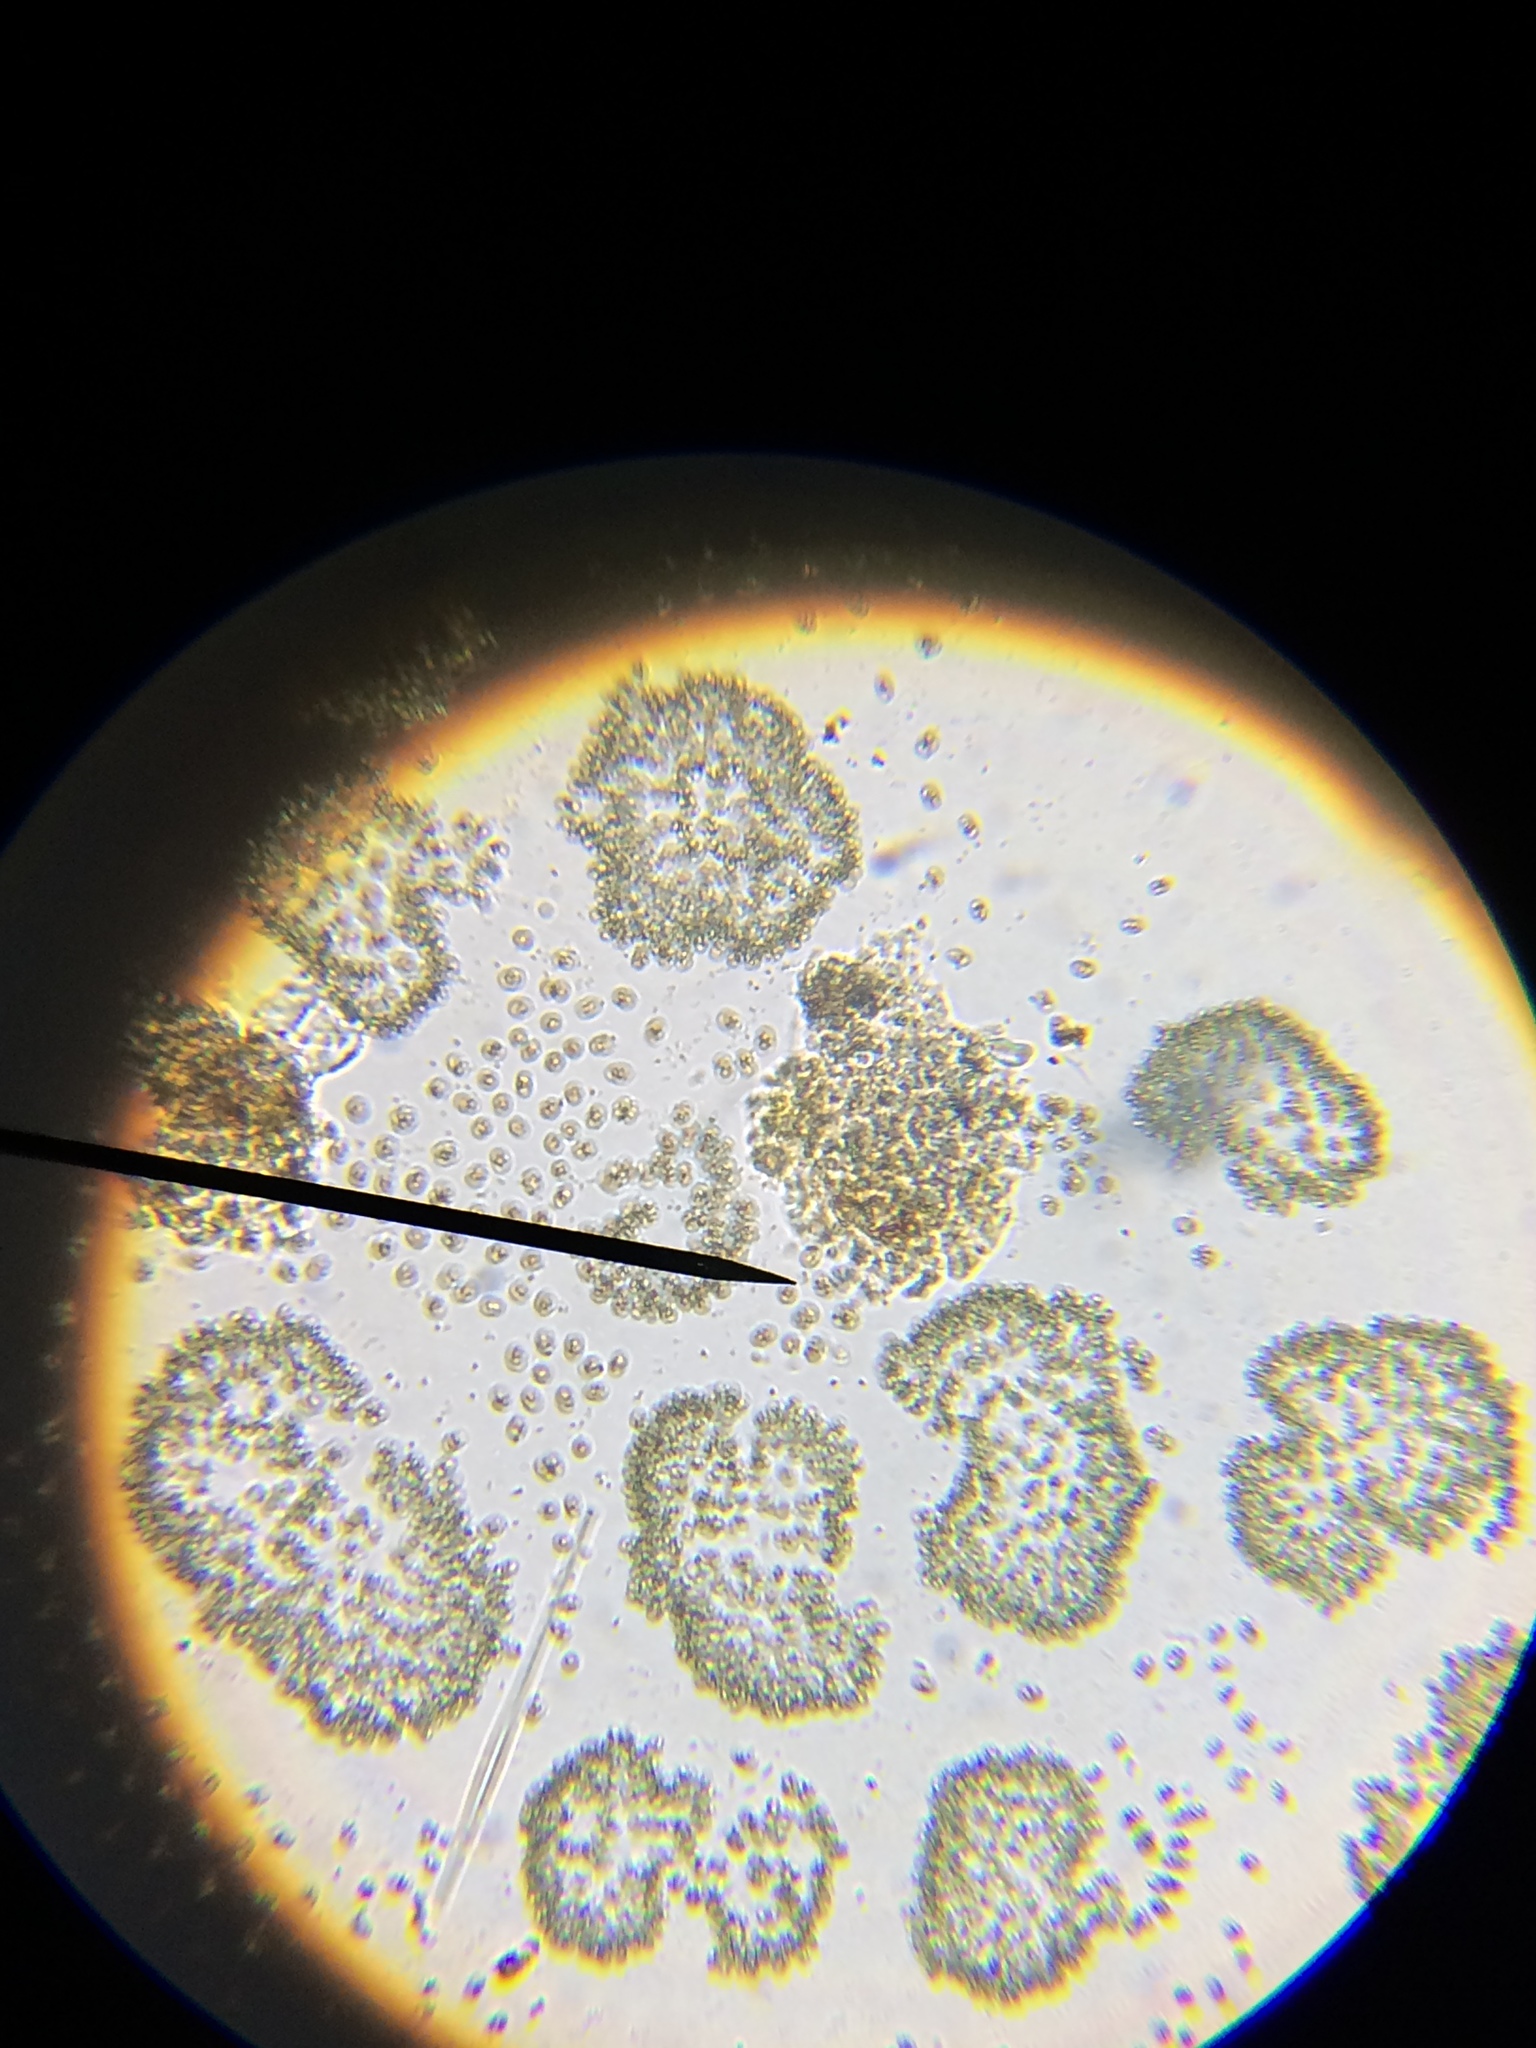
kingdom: Bacteria
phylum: Cyanobacteria
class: Cyanobacteriia
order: Synechococcales
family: Coelosphaeriaceae
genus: Woronichinia
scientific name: Woronichinia
